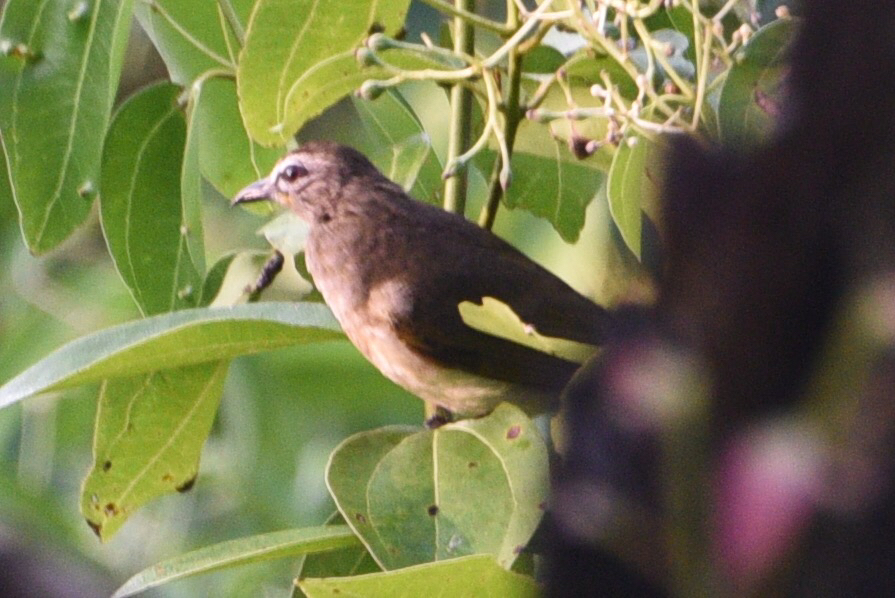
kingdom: Animalia
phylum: Chordata
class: Aves
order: Passeriformes
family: Pycnonotidae
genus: Pycnonotus
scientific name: Pycnonotus luteolus
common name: White-browed bulbul
